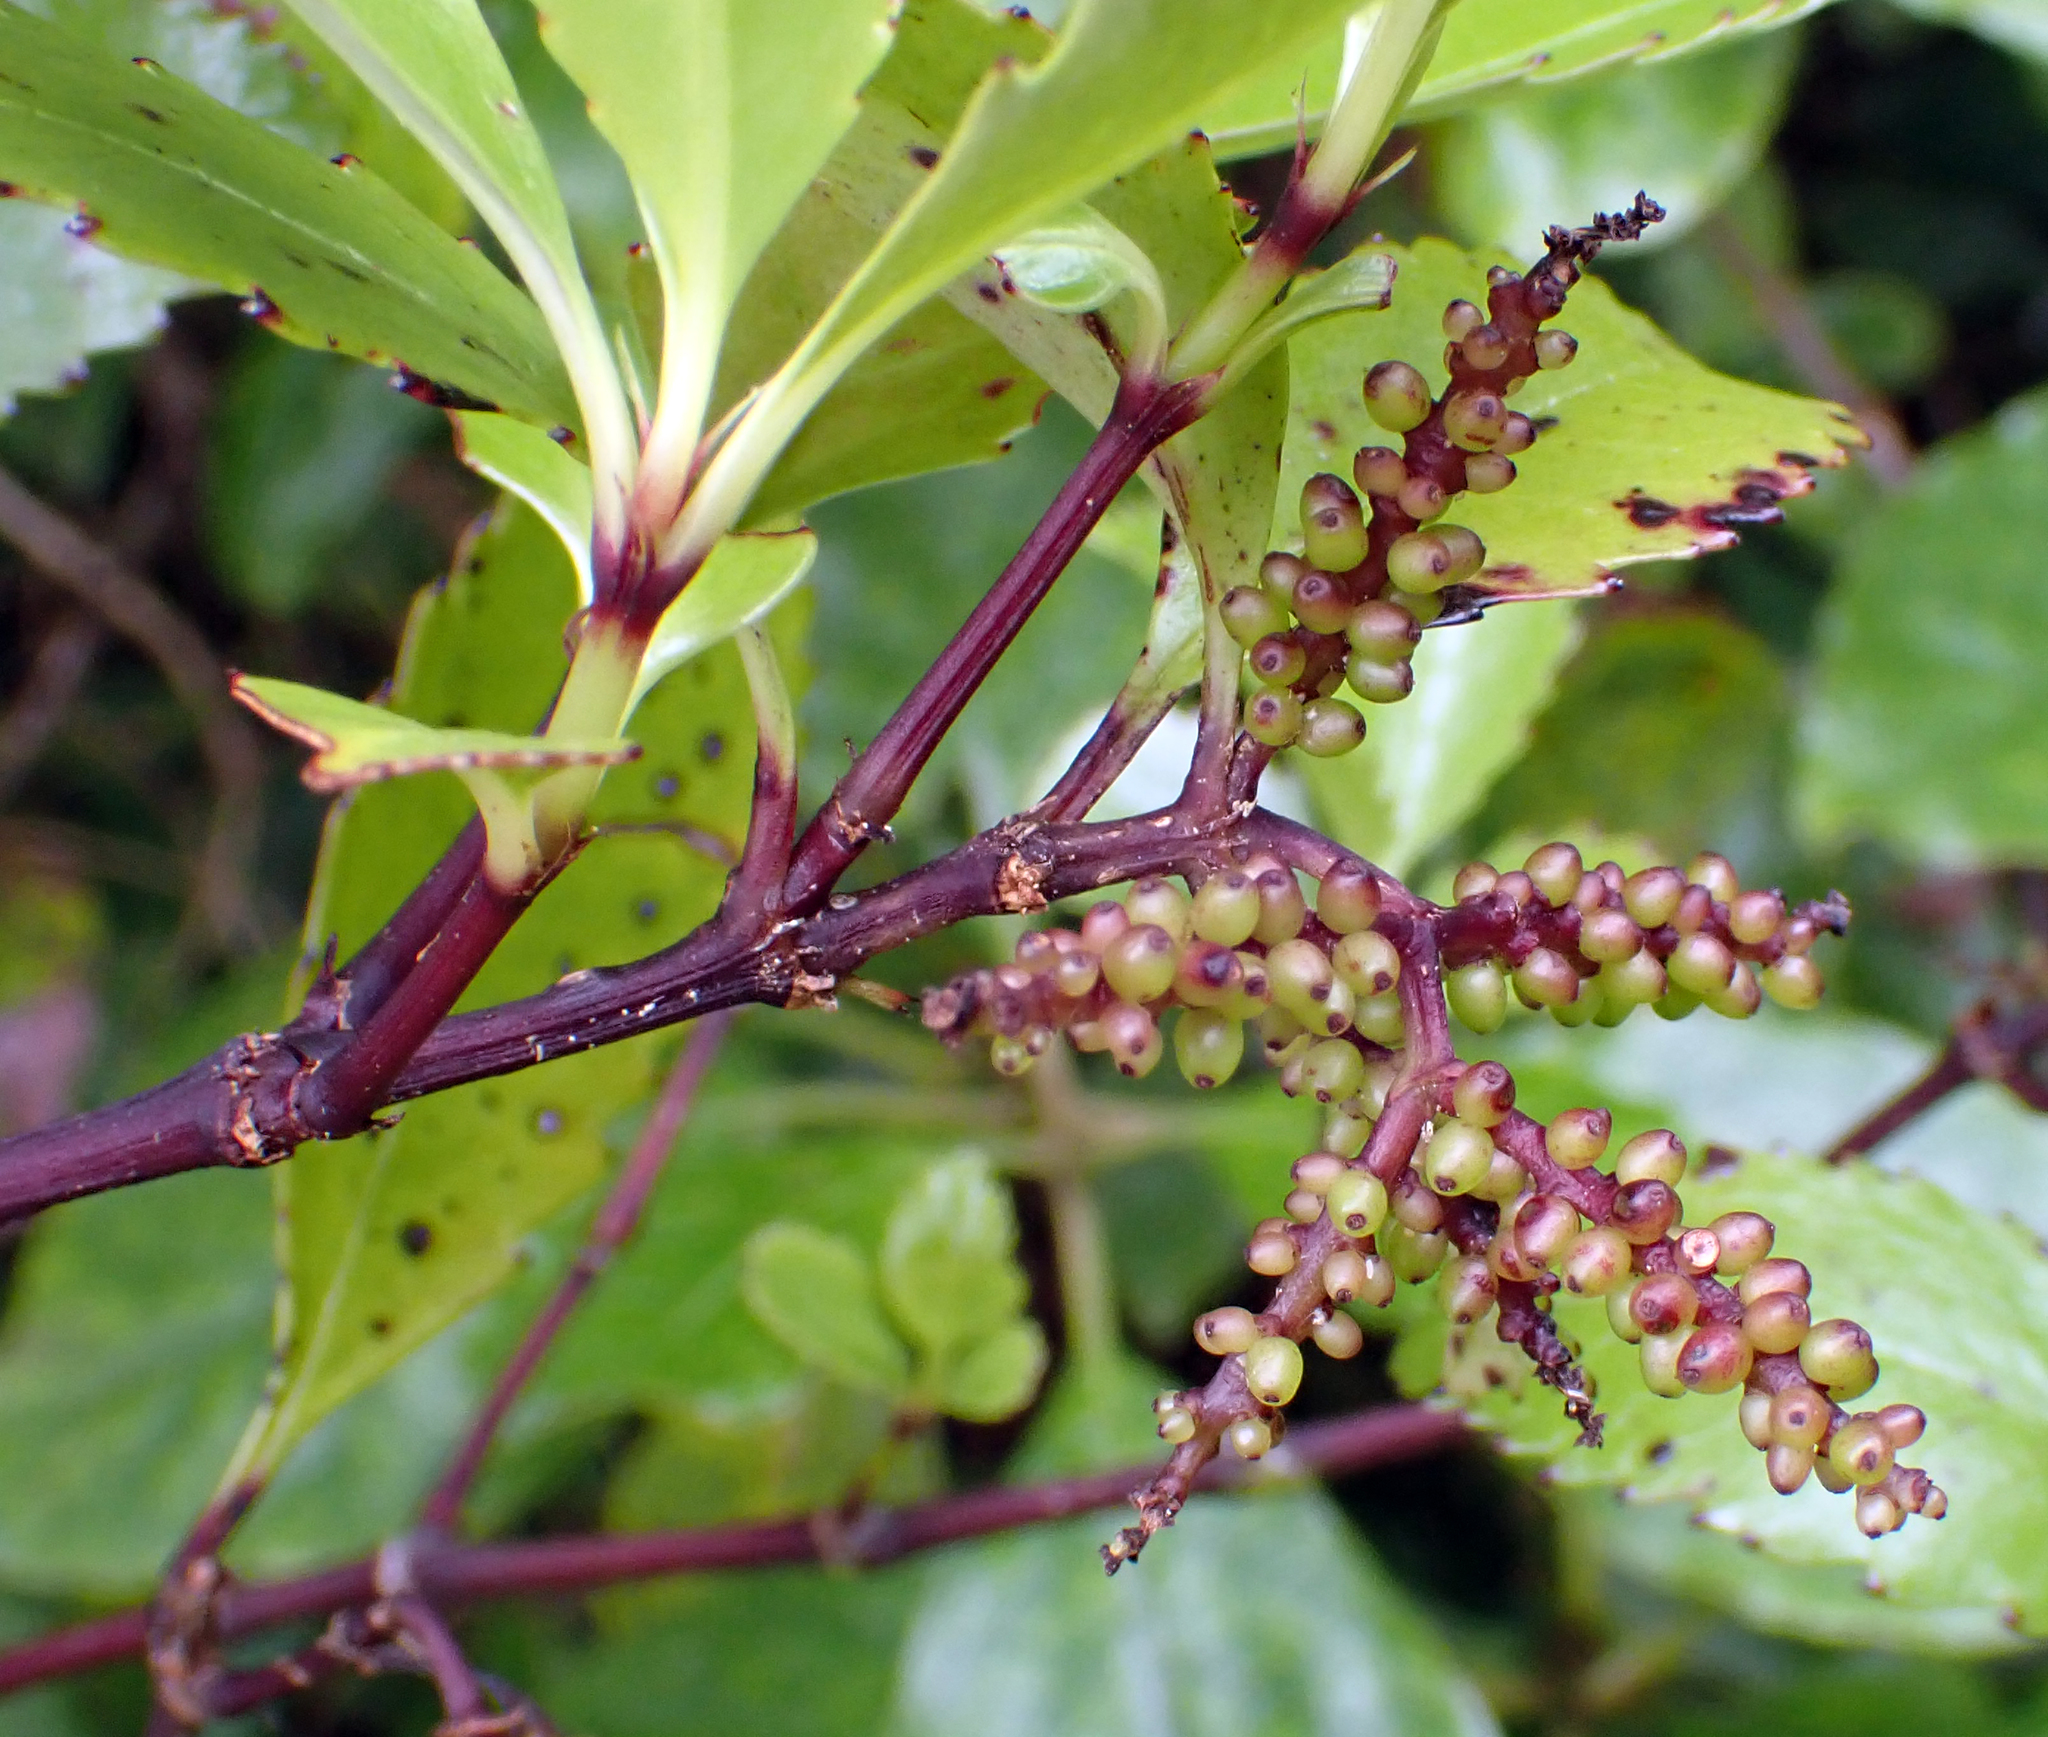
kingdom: Plantae
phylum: Tracheophyta
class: Magnoliopsida
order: Chloranthales
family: Chloranthaceae
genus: Ascarina
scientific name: Ascarina lucida
